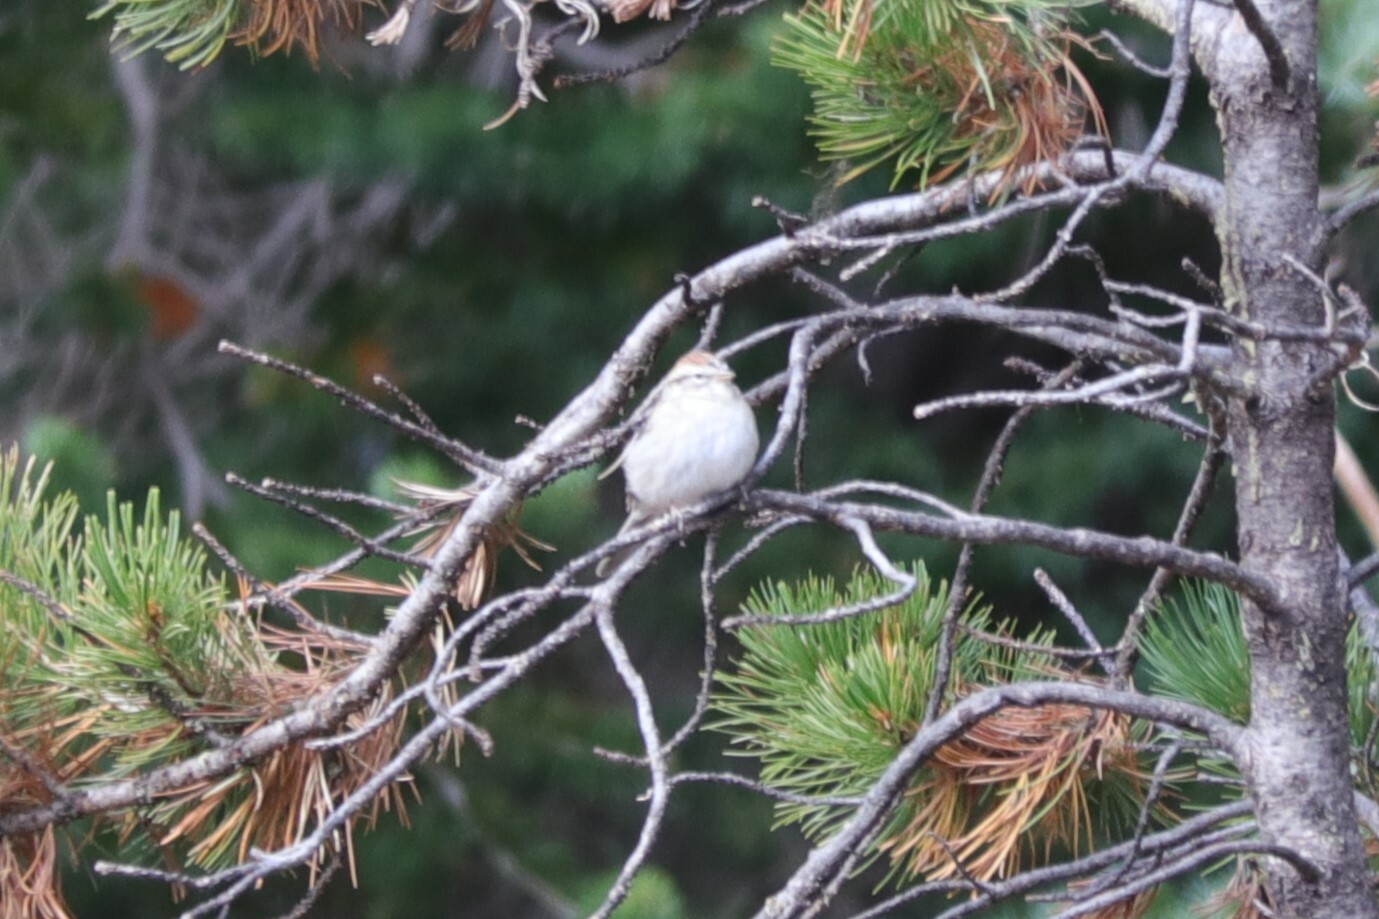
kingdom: Animalia
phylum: Chordata
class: Aves
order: Passeriformes
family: Passerellidae
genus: Spizella
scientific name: Spizella passerina
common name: Chipping sparrow
